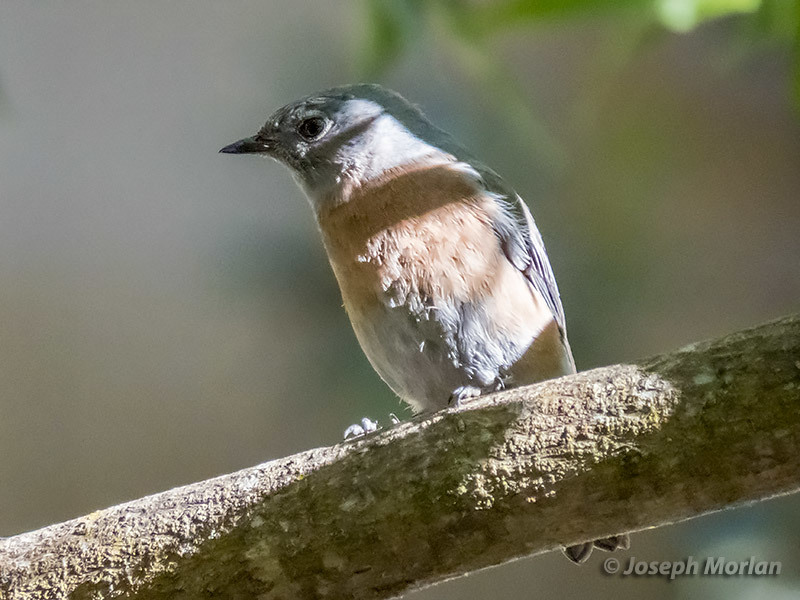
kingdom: Animalia
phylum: Chordata
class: Aves
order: Passeriformes
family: Turdidae
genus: Sialia
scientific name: Sialia mexicana
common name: Western bluebird
